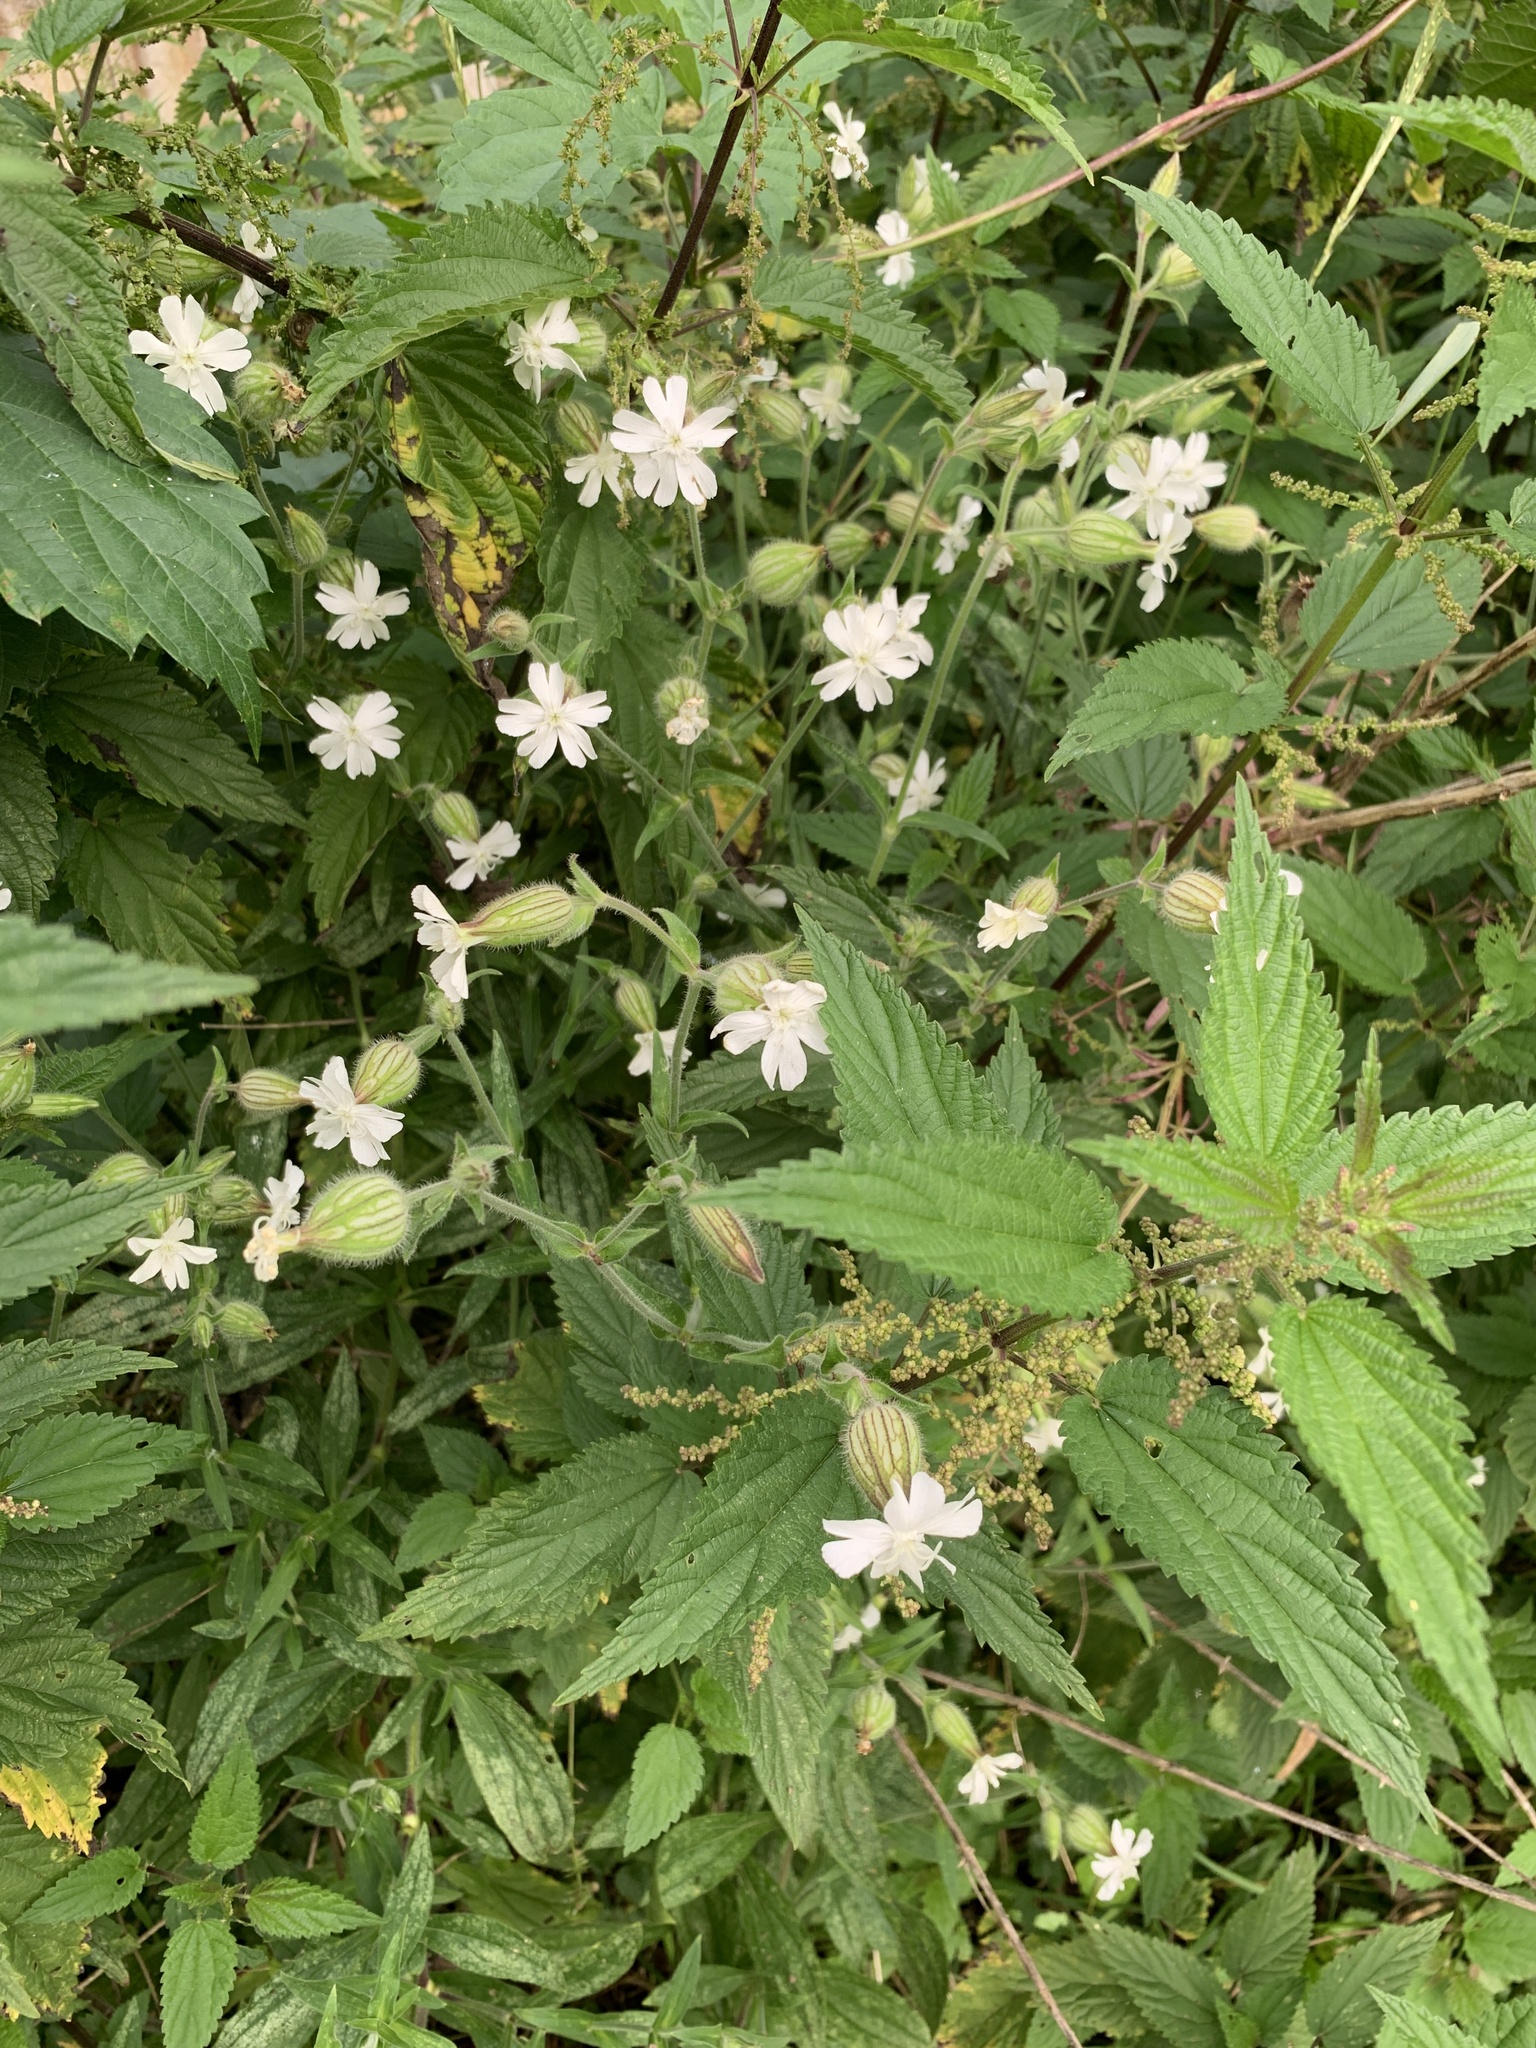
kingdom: Plantae
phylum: Tracheophyta
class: Magnoliopsida
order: Caryophyllales
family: Caryophyllaceae
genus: Silene
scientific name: Silene latifolia
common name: White campion
